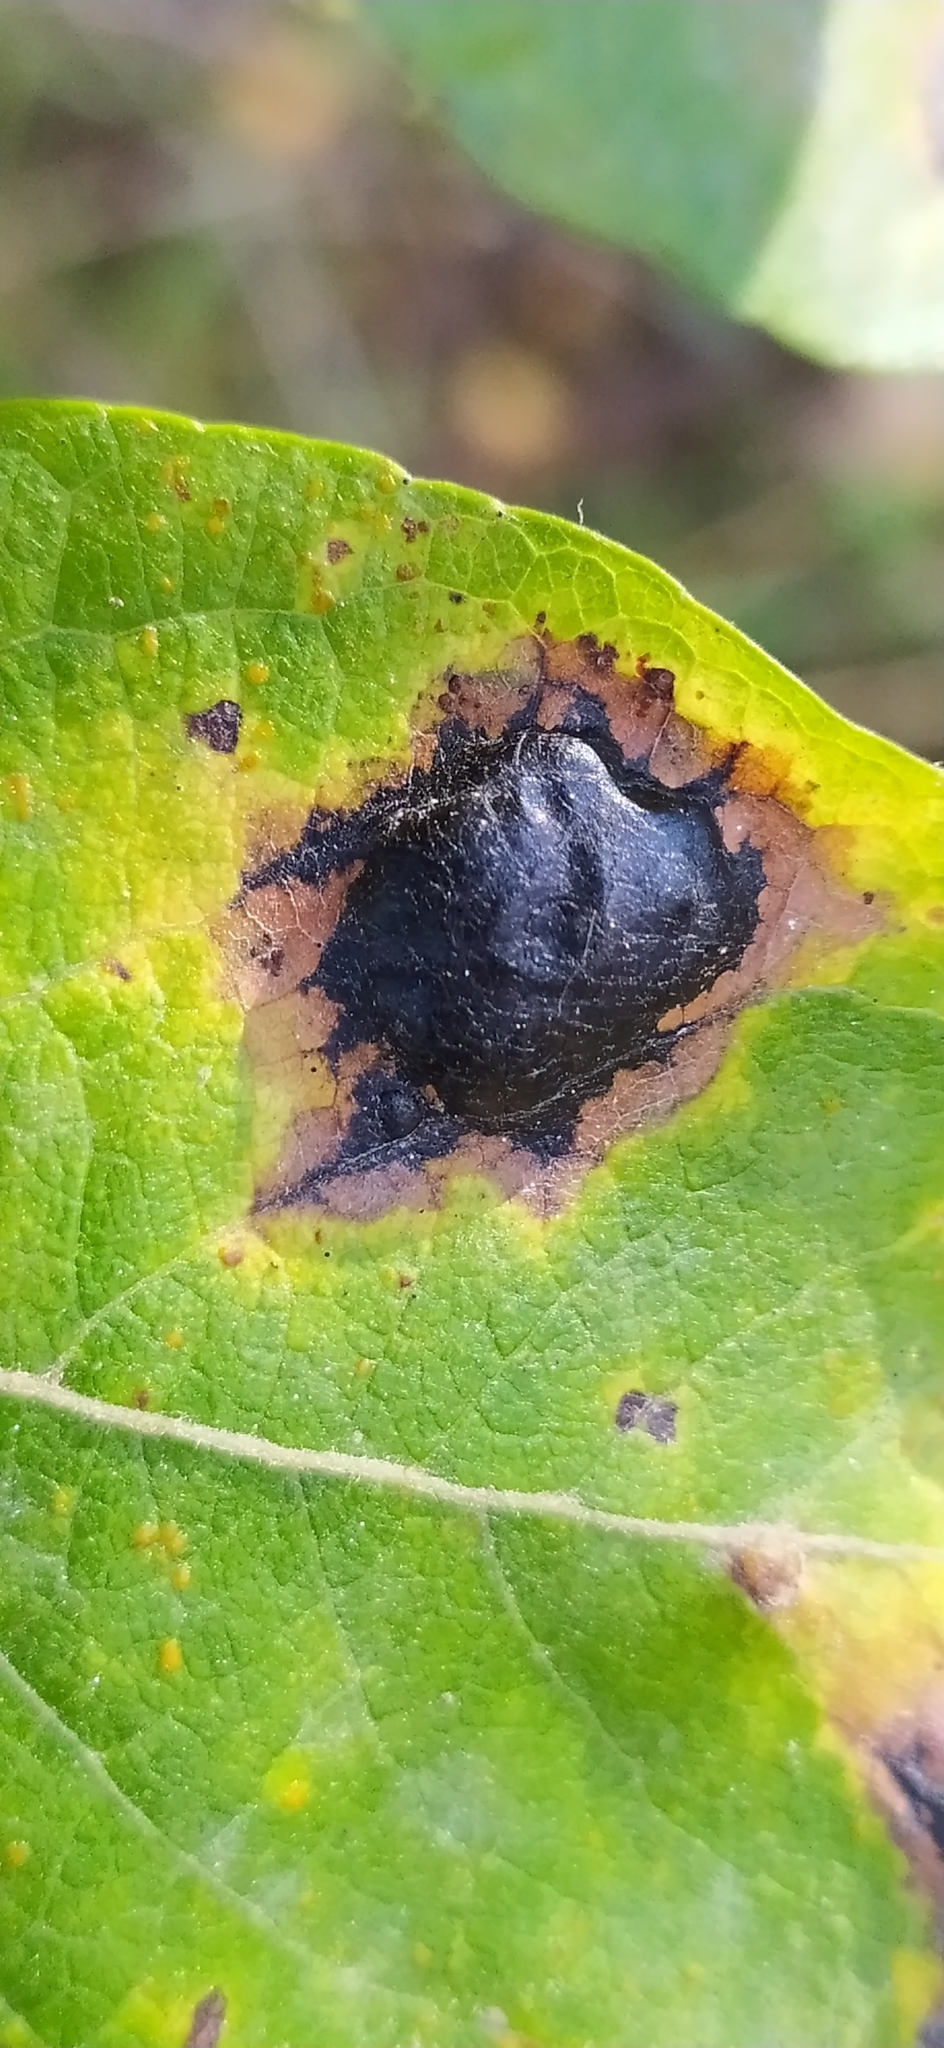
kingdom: Fungi
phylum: Ascomycota
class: Leotiomycetes
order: Rhytismatales
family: Rhytismataceae
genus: Rhytisma
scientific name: Rhytisma salicinum
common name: Willow tarspot
